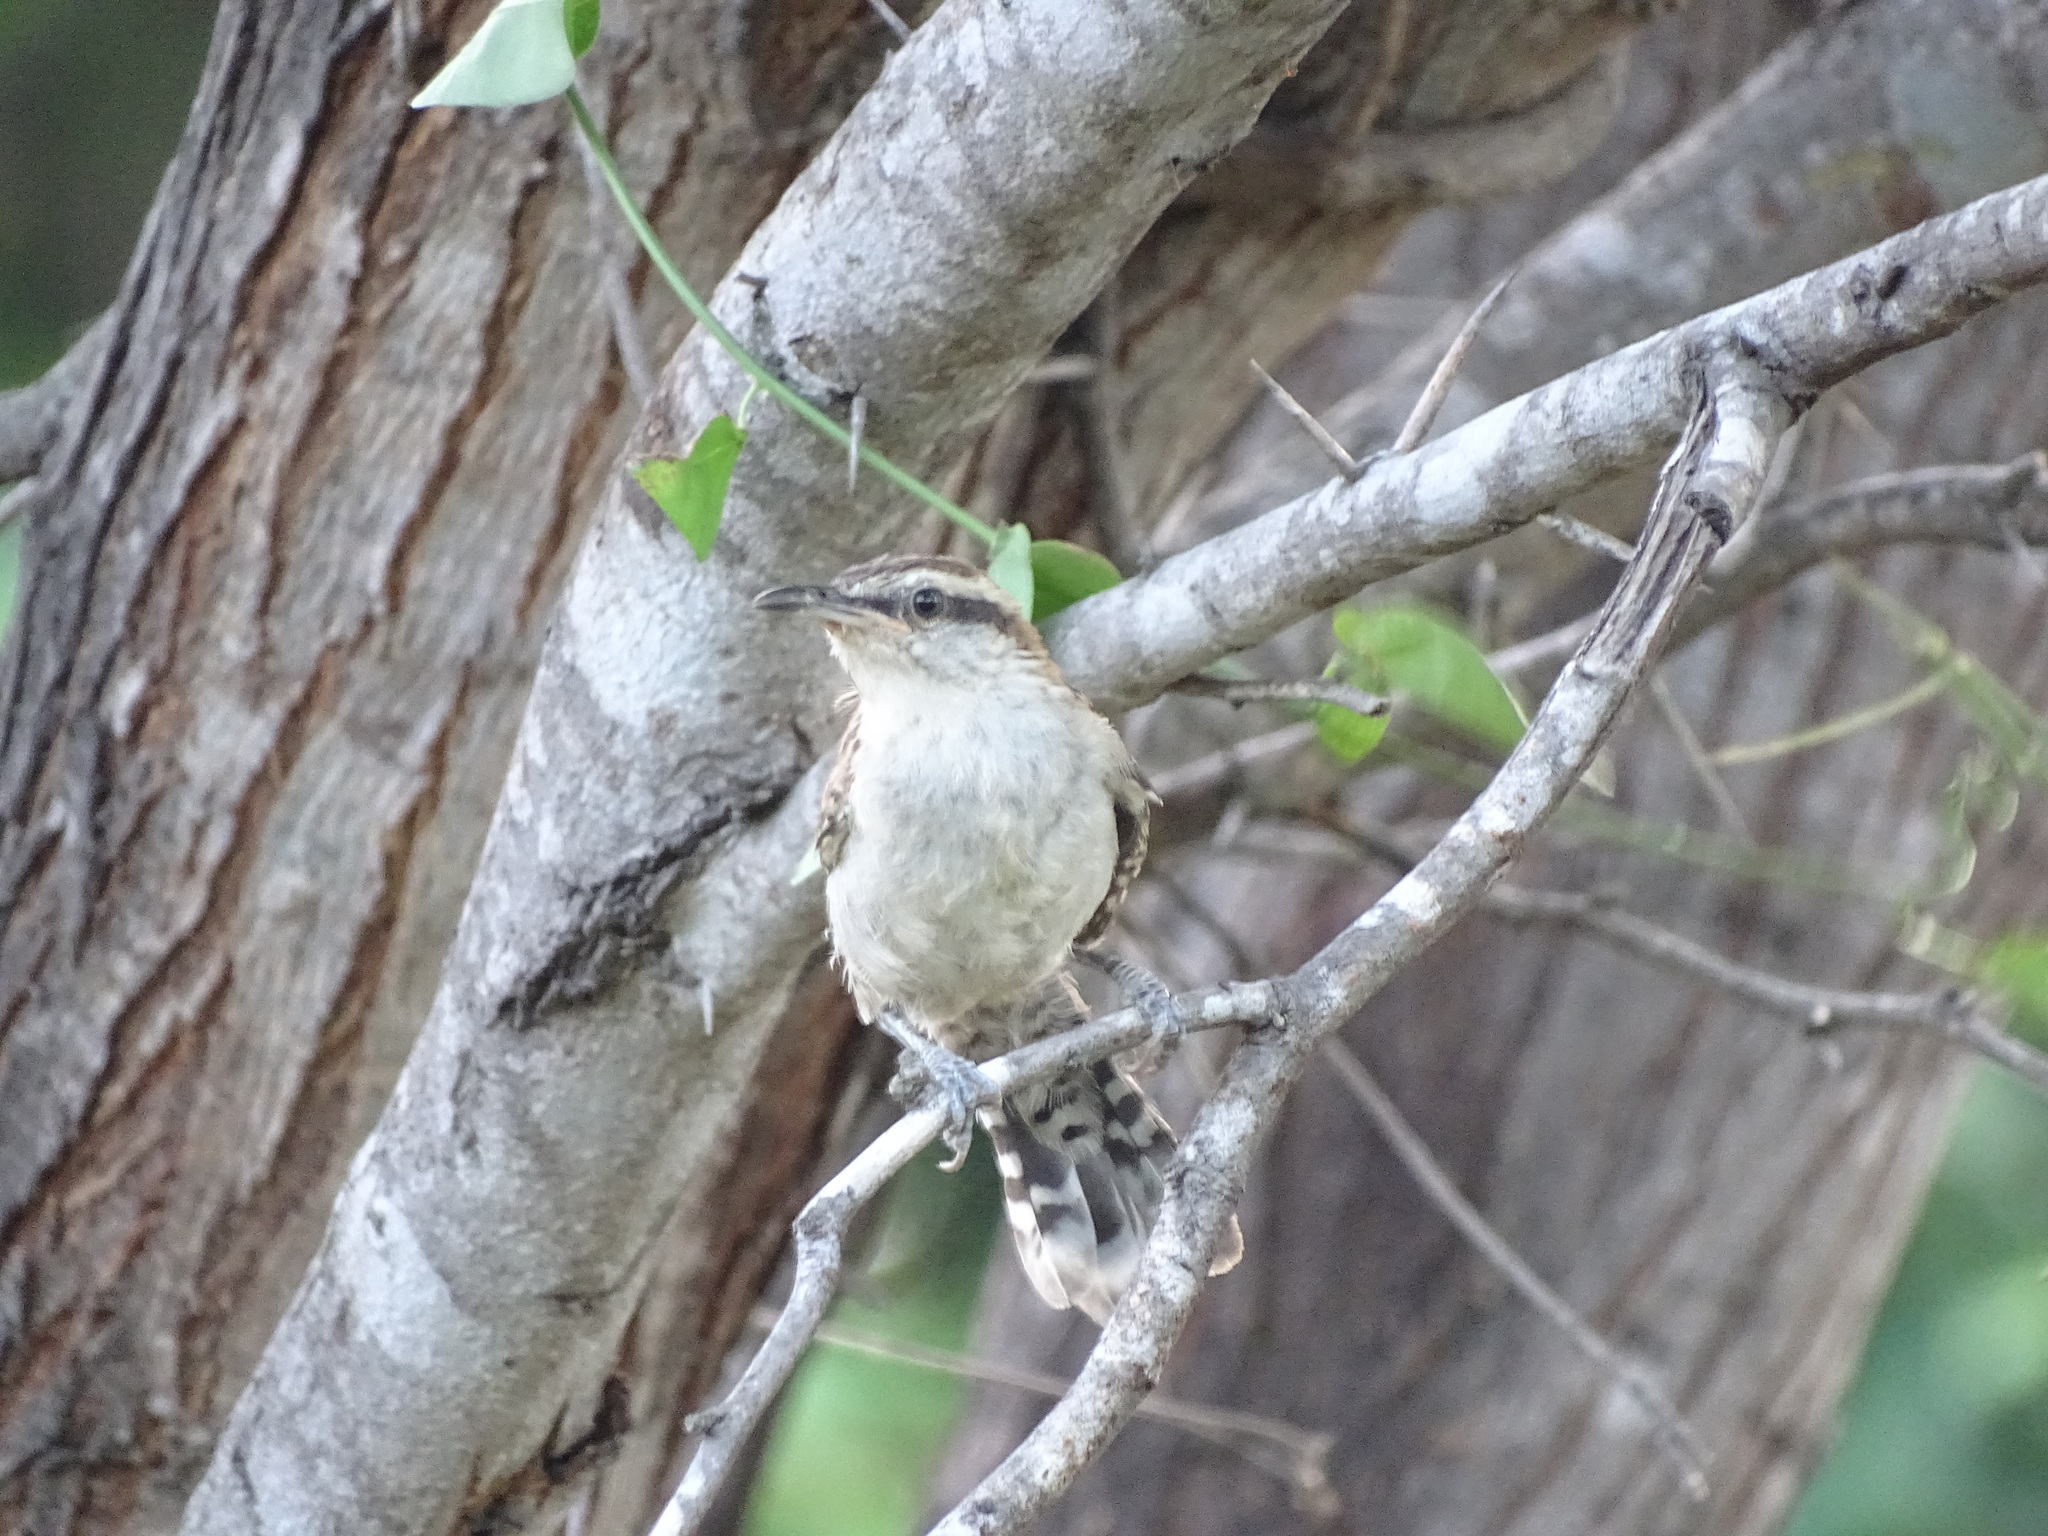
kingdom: Animalia
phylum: Chordata
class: Aves
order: Passeriformes
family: Troglodytidae
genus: Campylorhynchus
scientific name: Campylorhynchus rufinucha
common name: Rufous-naped wren
